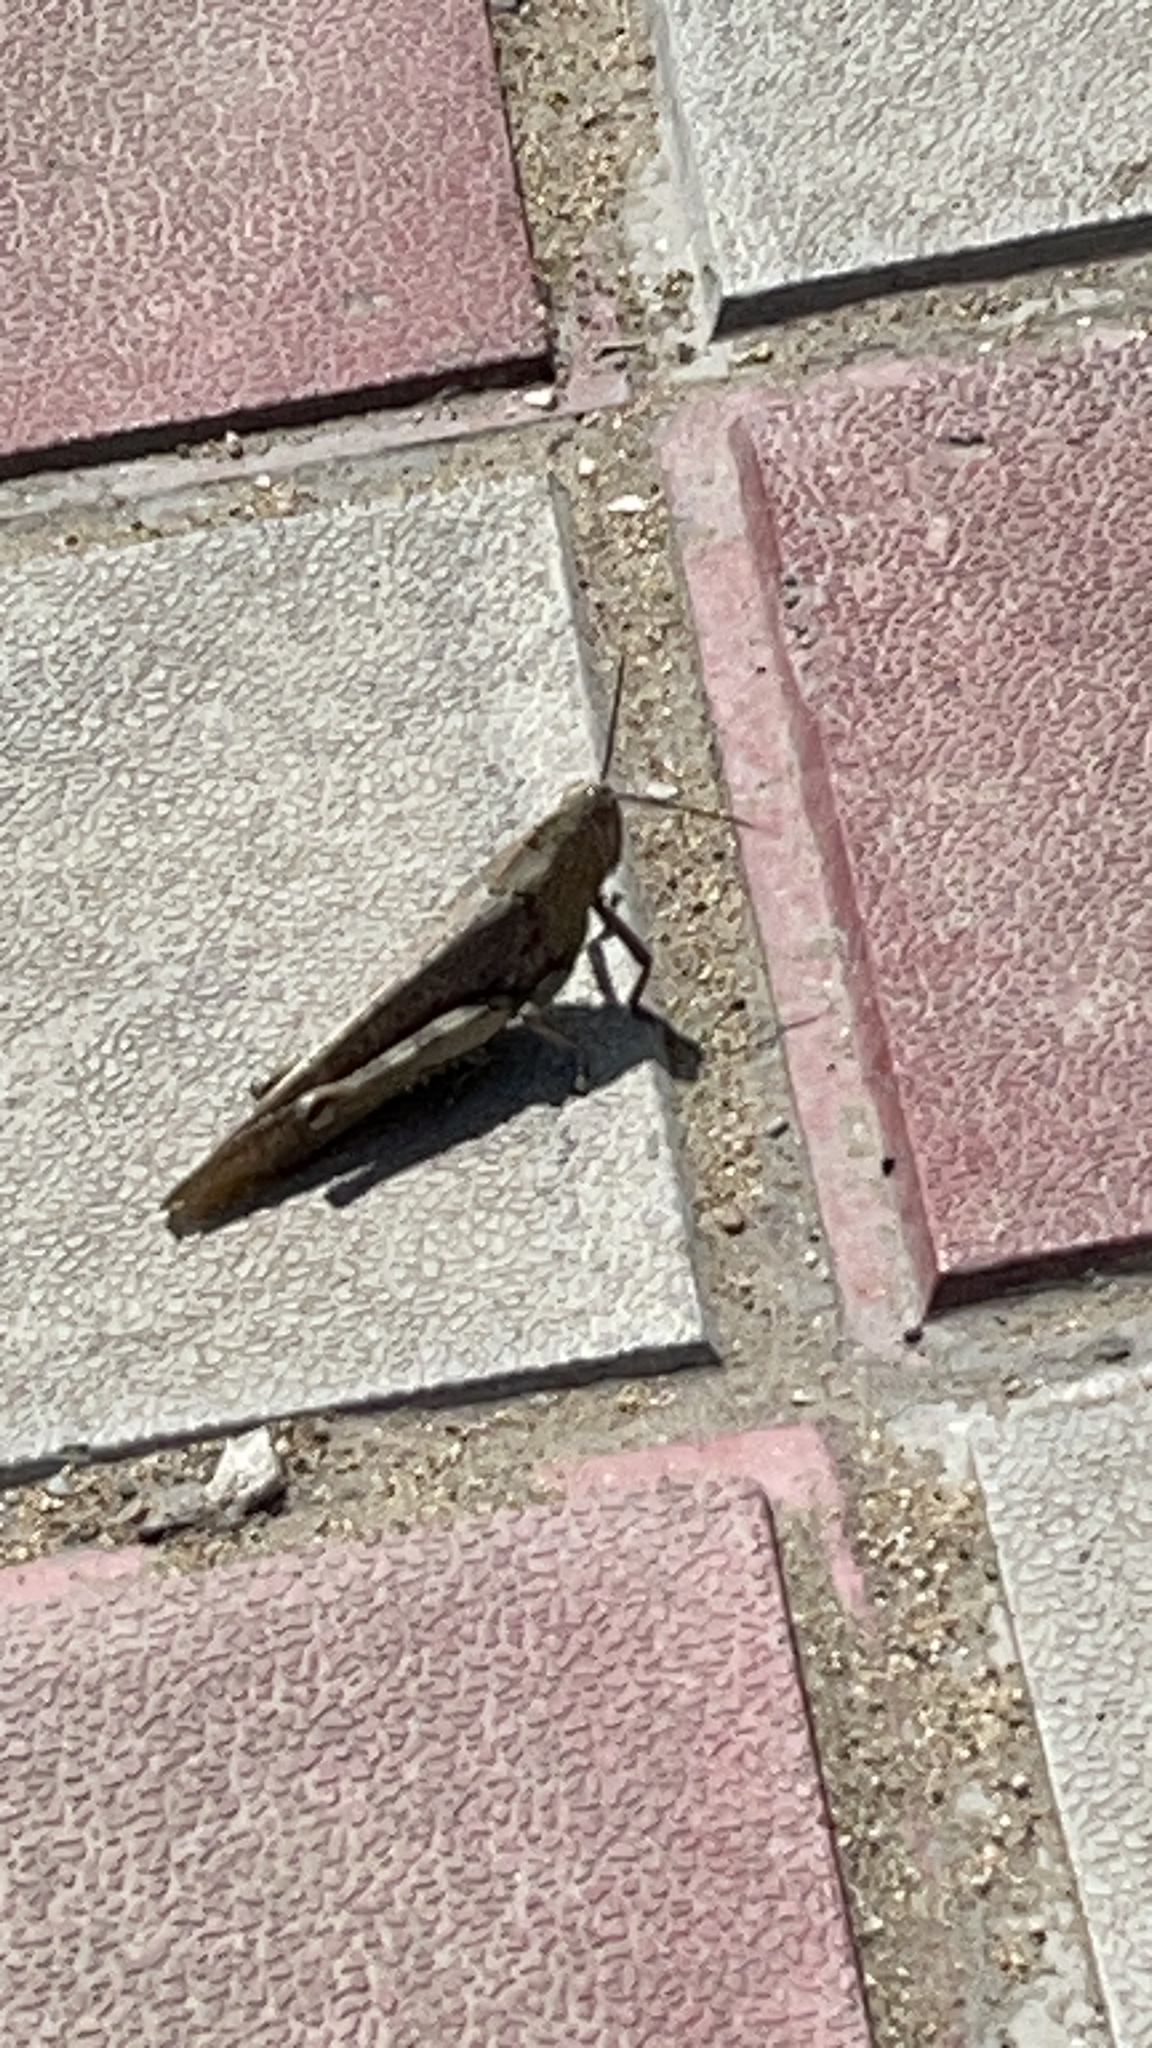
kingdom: Animalia
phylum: Arthropoda
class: Insecta
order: Orthoptera
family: Acrididae
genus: Anacridium
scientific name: Anacridium aegyptium
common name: Egyptian grasshopper
